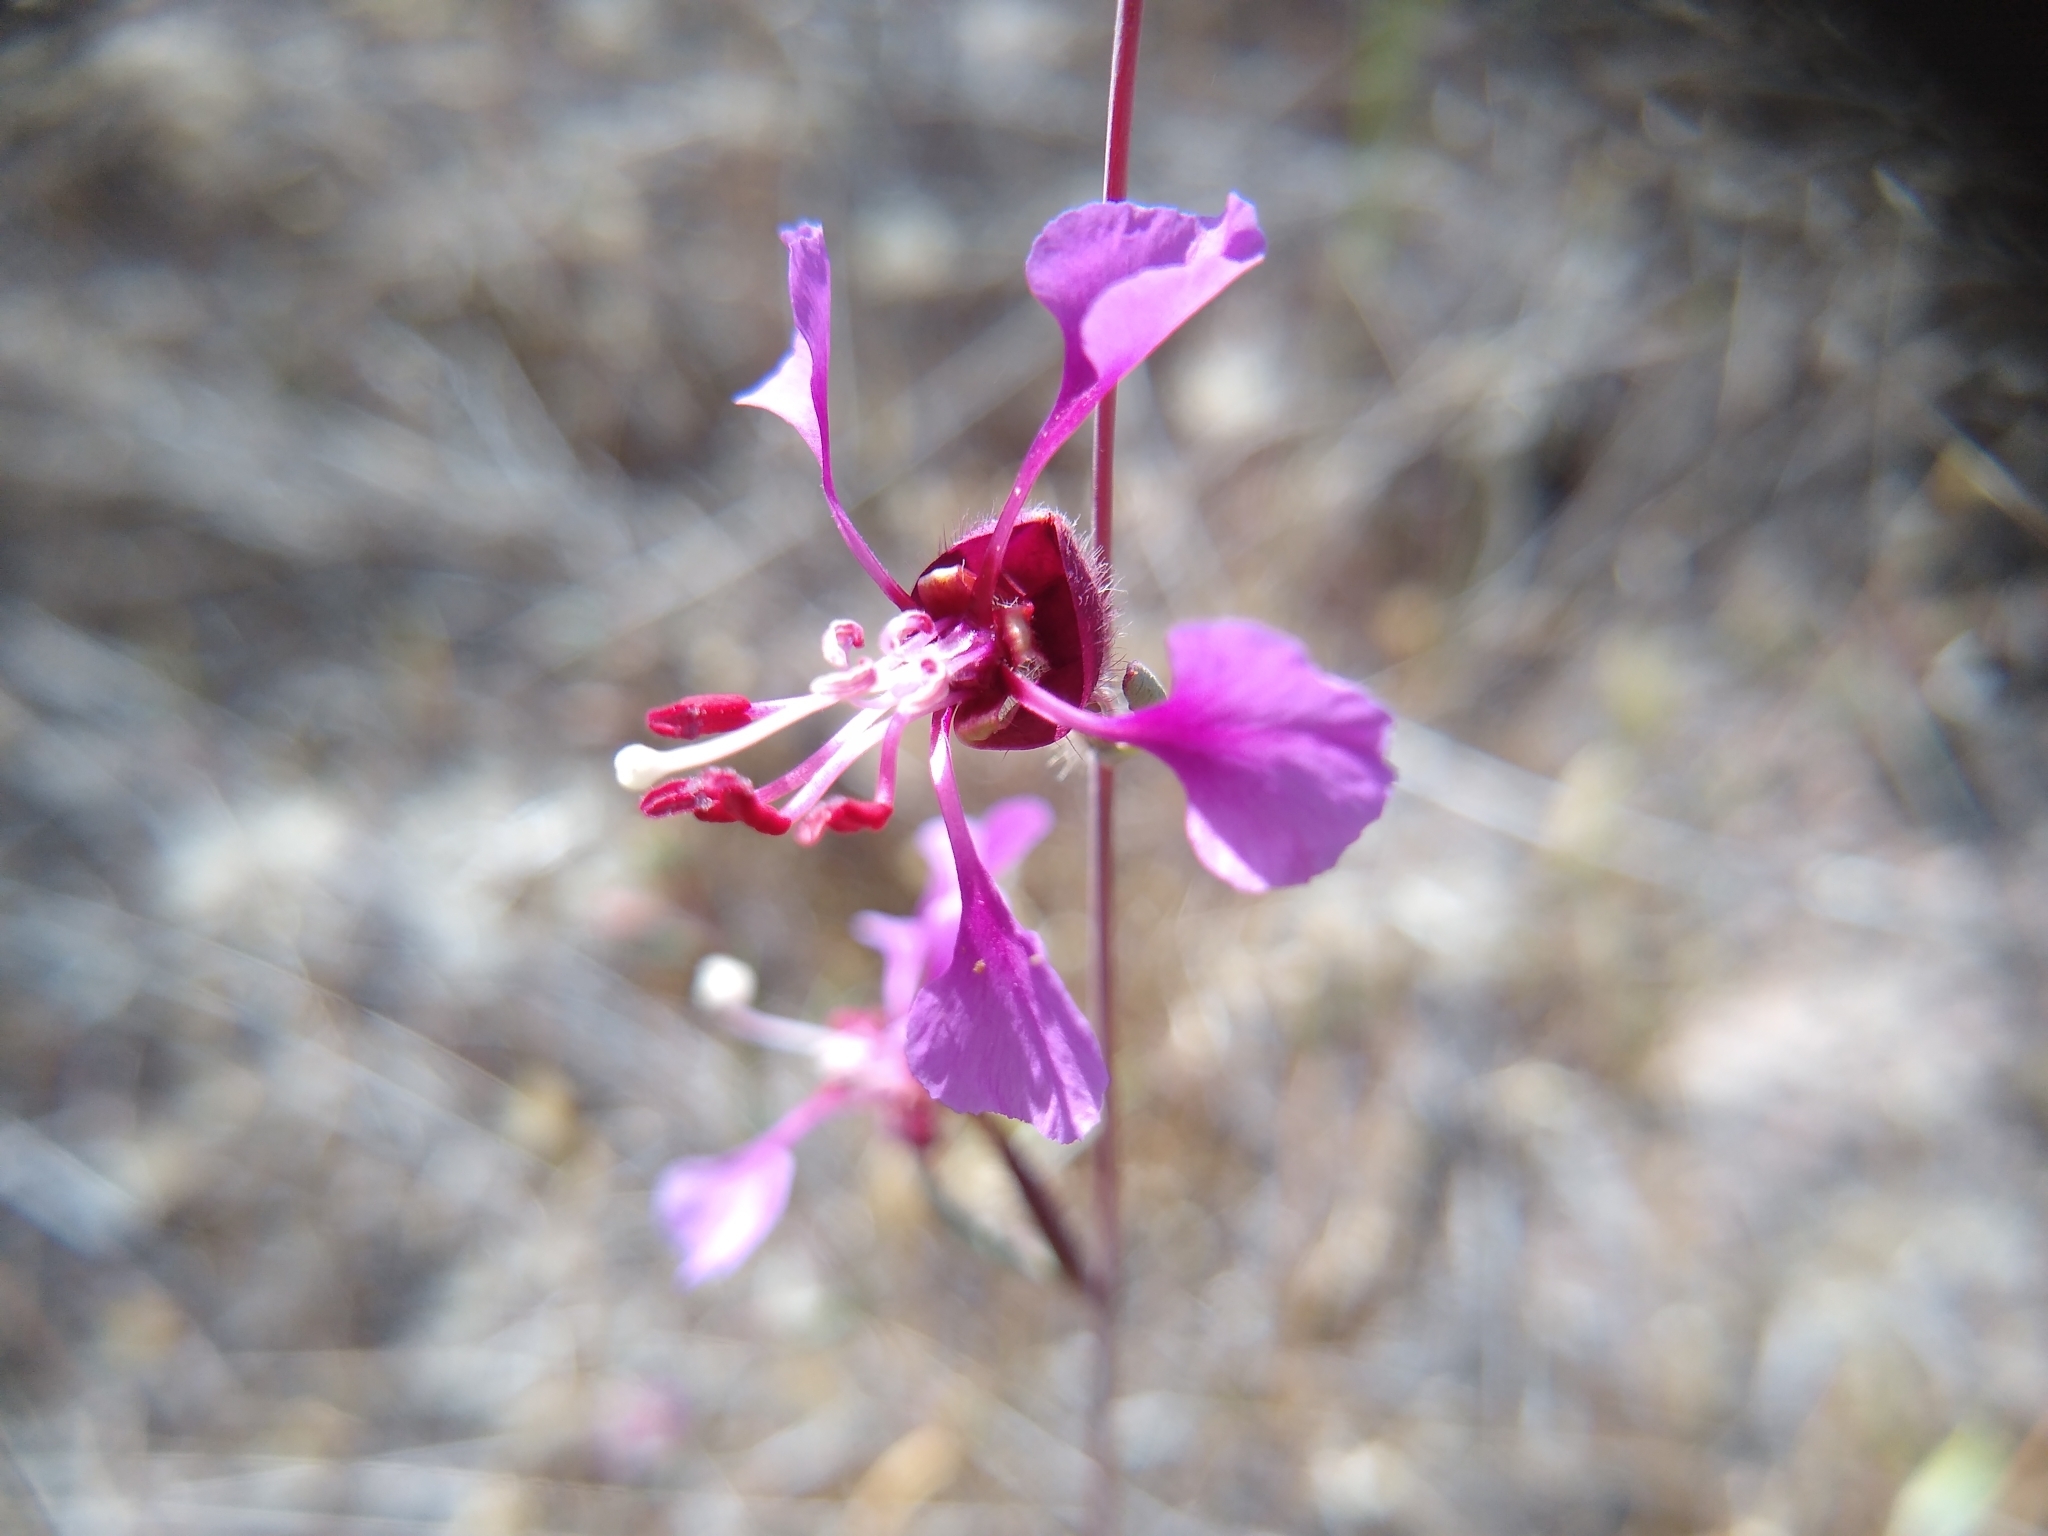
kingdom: Plantae
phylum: Tracheophyta
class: Magnoliopsida
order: Myrtales
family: Onagraceae
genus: Clarkia
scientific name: Clarkia unguiculata
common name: Clarkia
